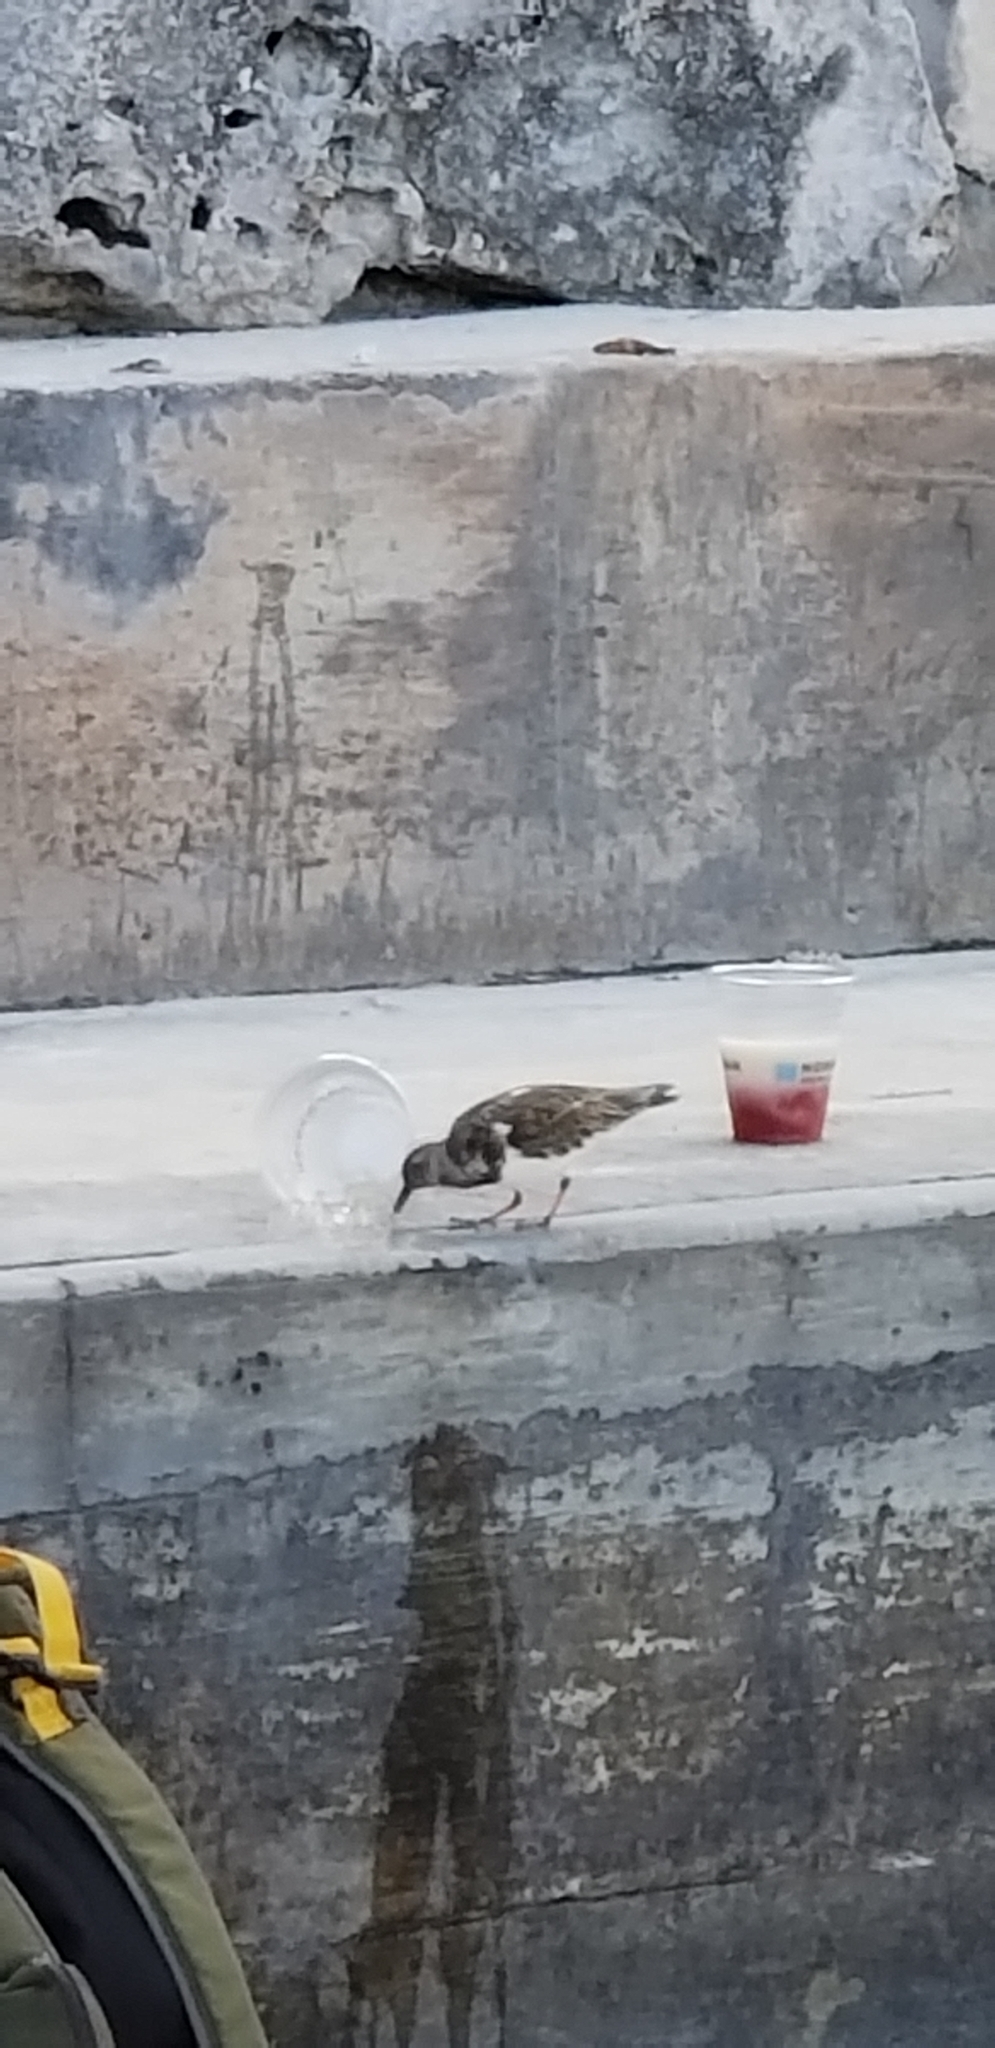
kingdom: Animalia
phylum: Chordata
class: Aves
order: Charadriiformes
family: Scolopacidae
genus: Arenaria
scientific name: Arenaria interpres
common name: Ruddy turnstone
